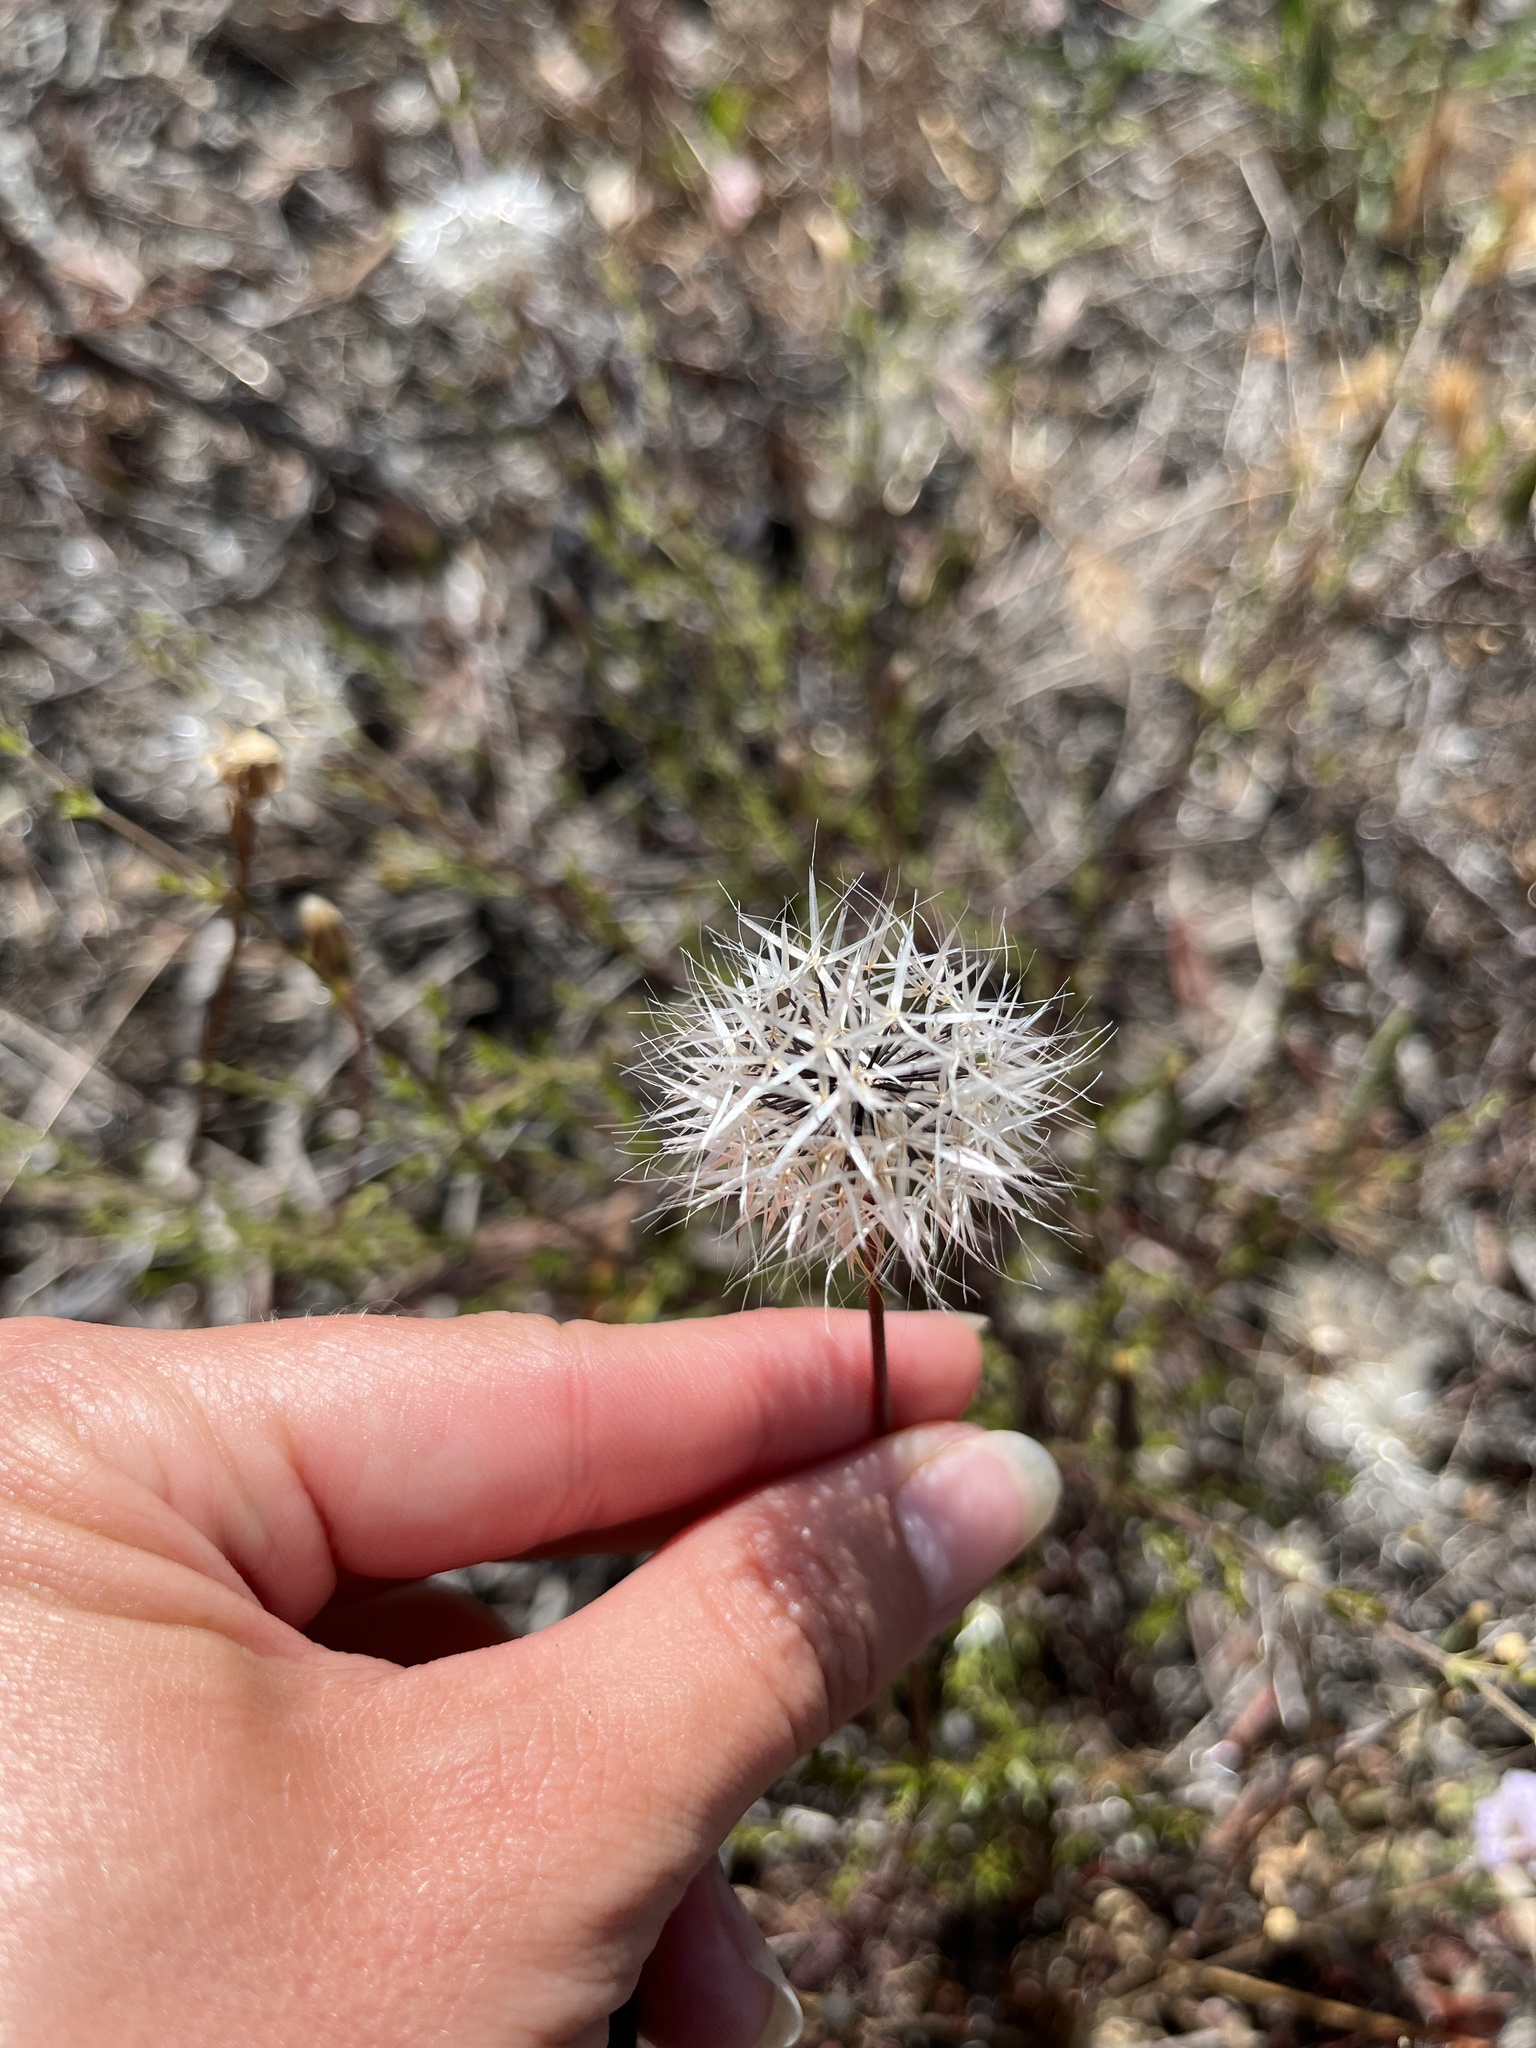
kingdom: Plantae
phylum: Tracheophyta
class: Magnoliopsida
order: Asterales
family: Asteraceae
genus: Microseris
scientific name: Microseris lindleyi
